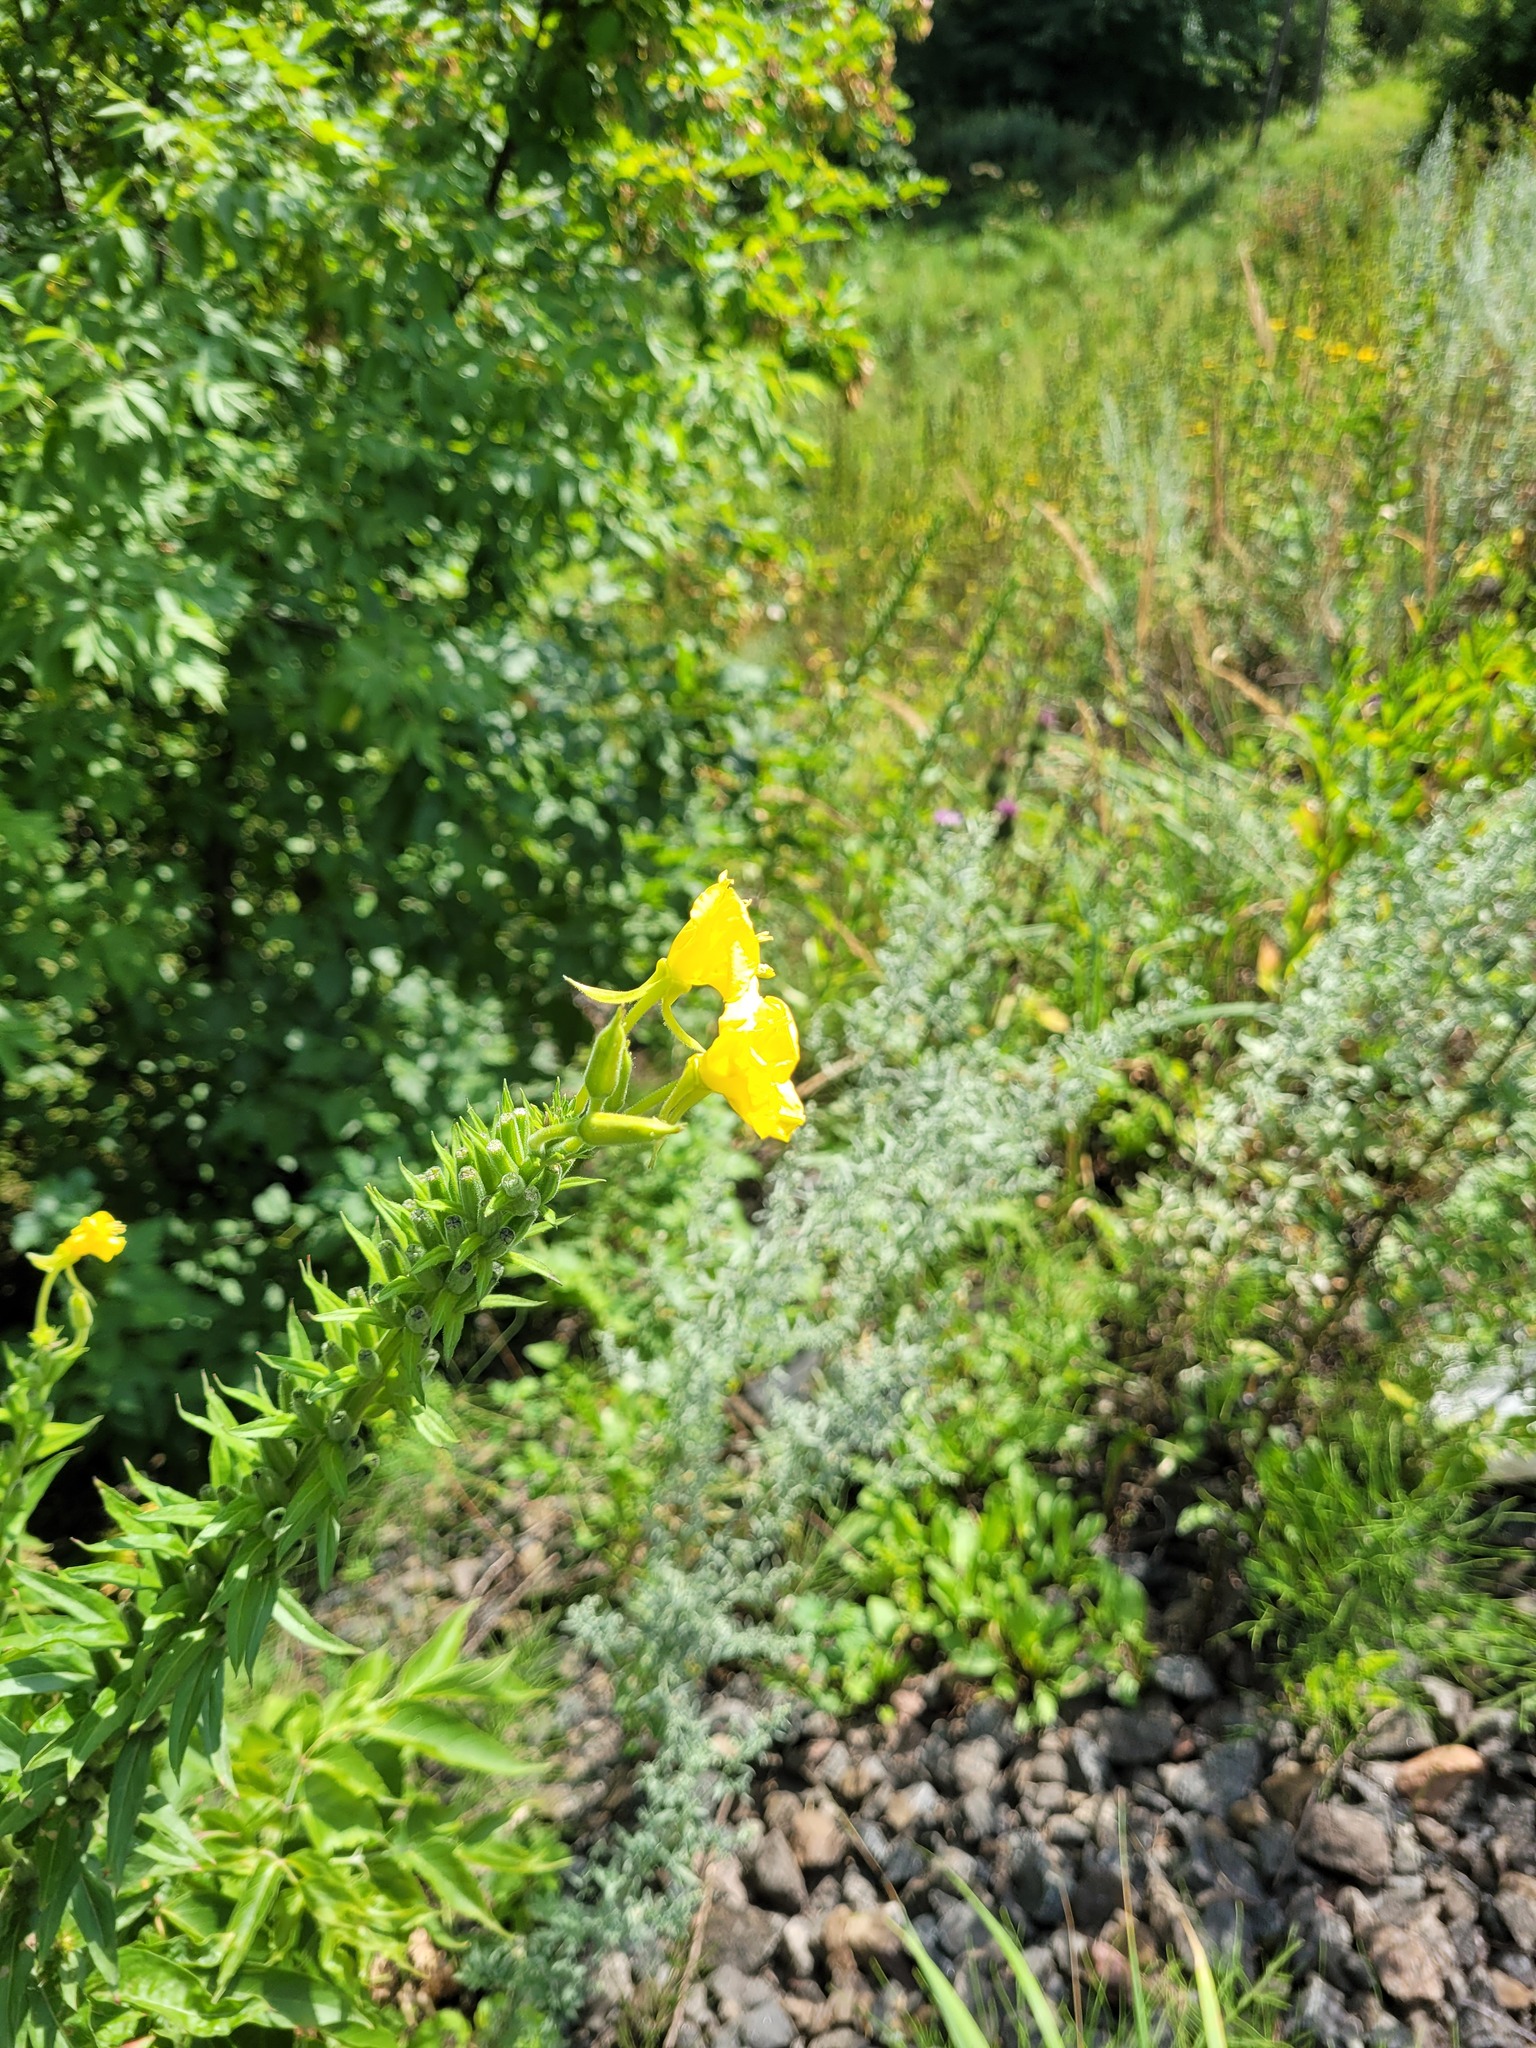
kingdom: Plantae
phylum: Tracheophyta
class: Magnoliopsida
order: Myrtales
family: Onagraceae
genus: Oenothera
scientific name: Oenothera biennis
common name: Common evening-primrose
